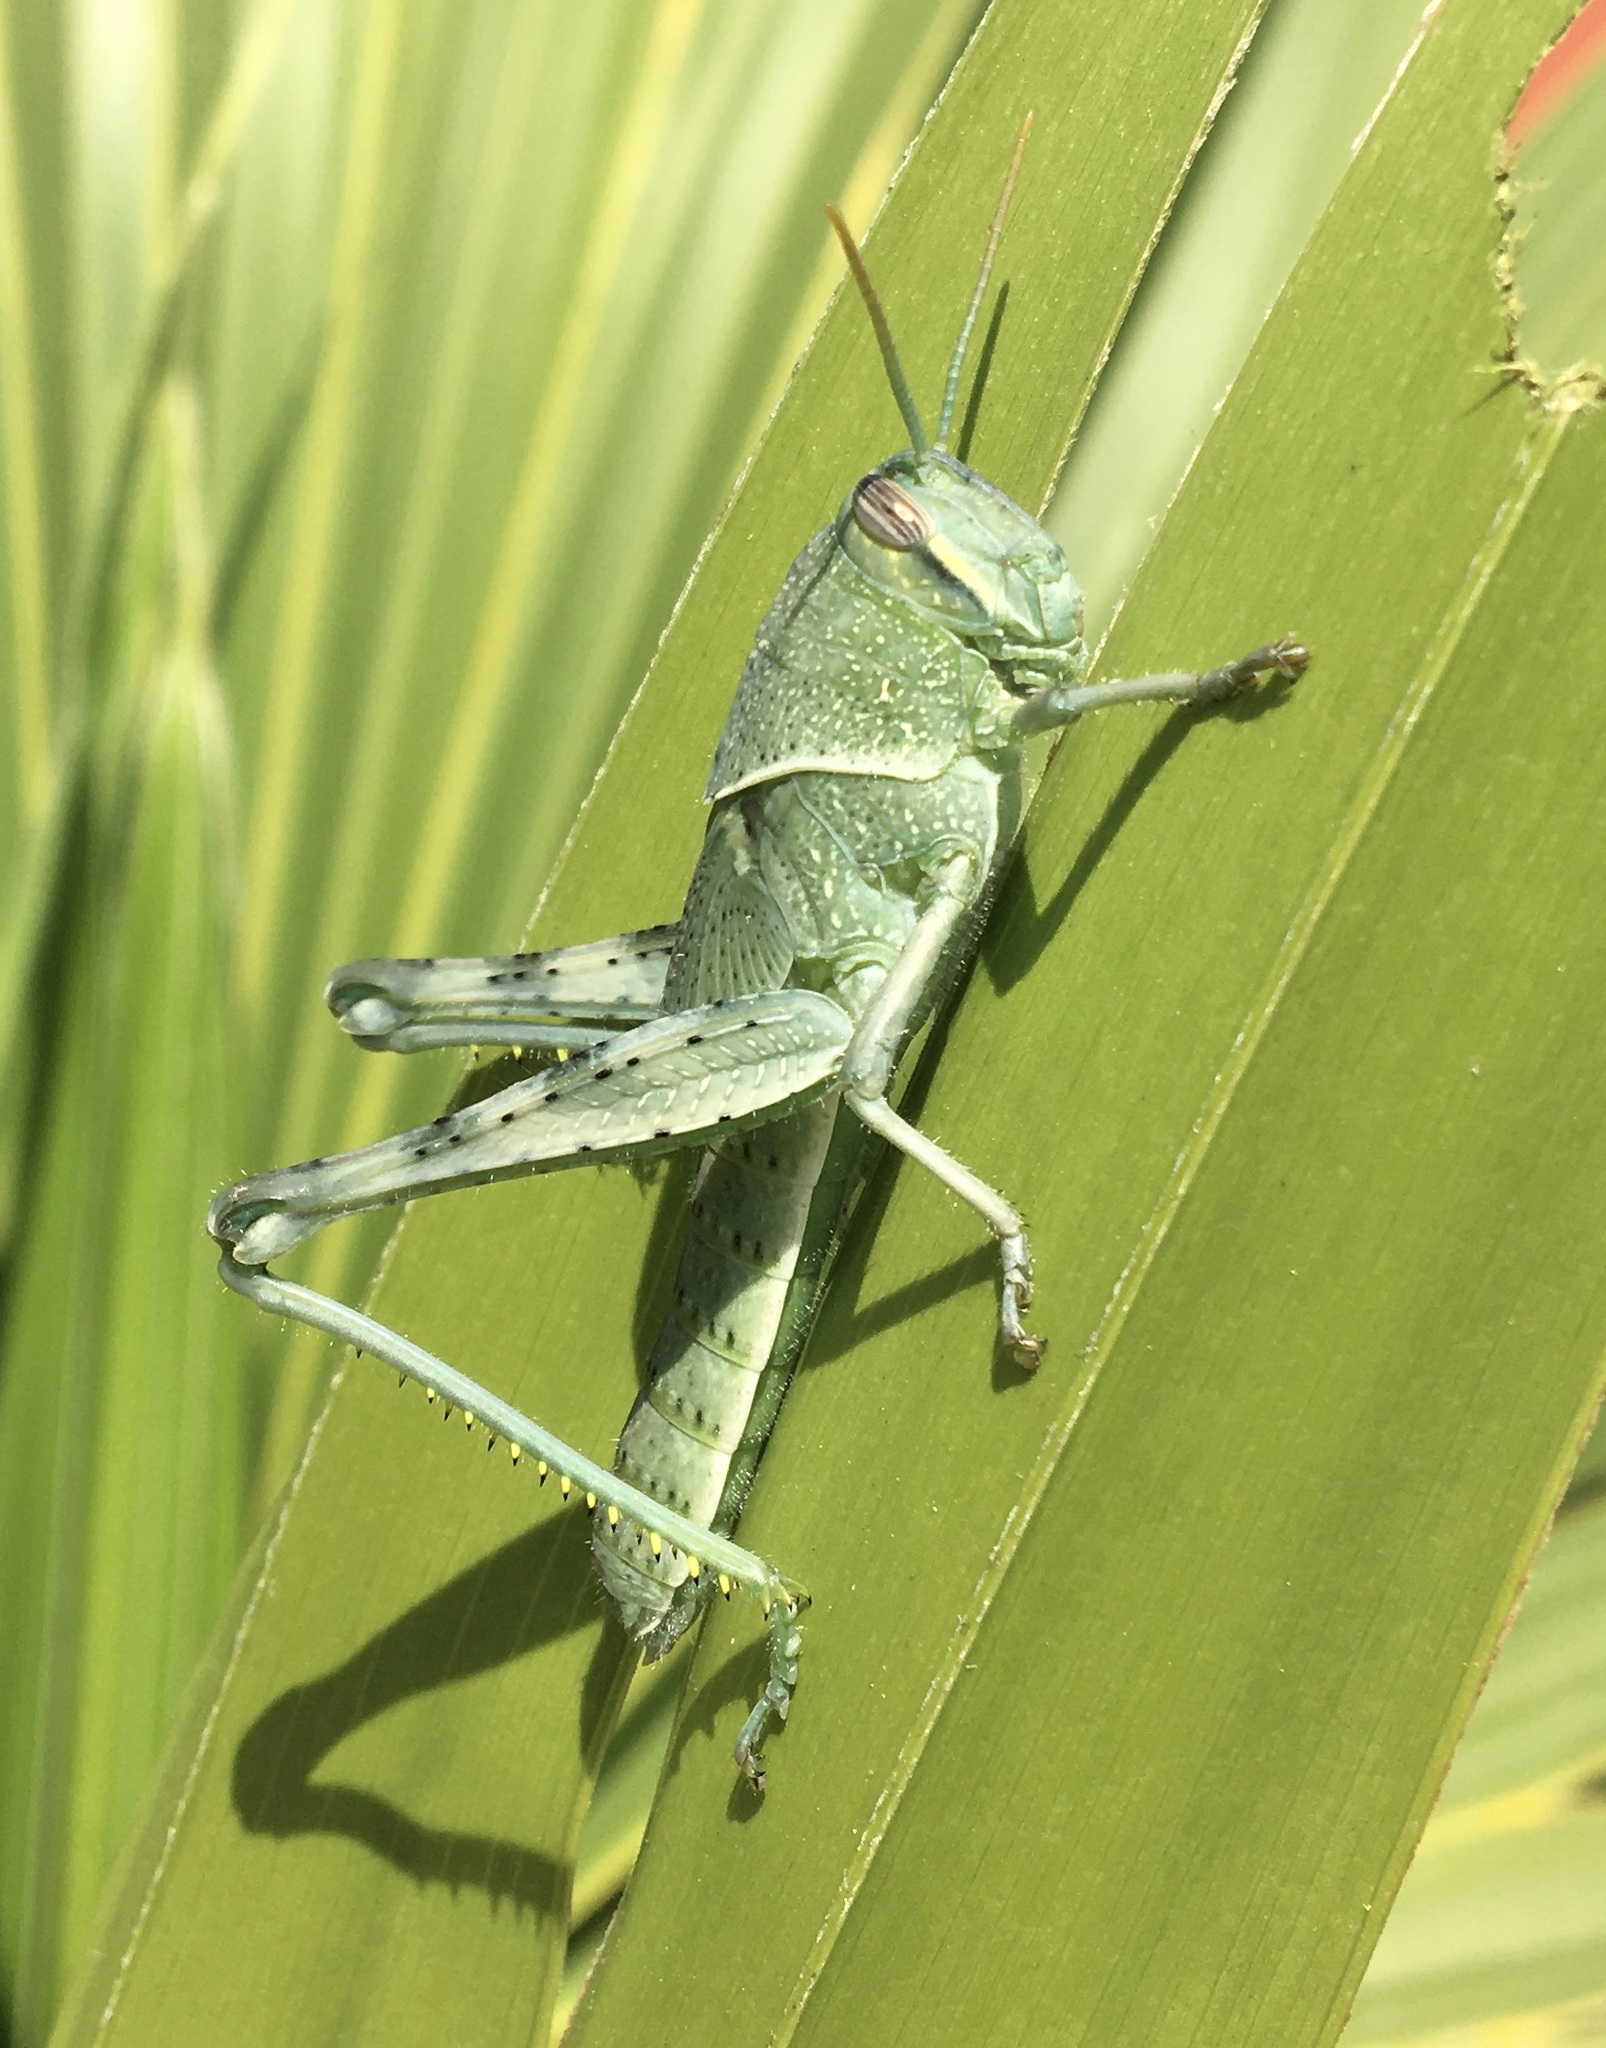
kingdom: Animalia
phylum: Arthropoda
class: Insecta
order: Orthoptera
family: Acrididae
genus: Schistocerca
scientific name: Schistocerca nitens
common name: Vagrant grasshopper
